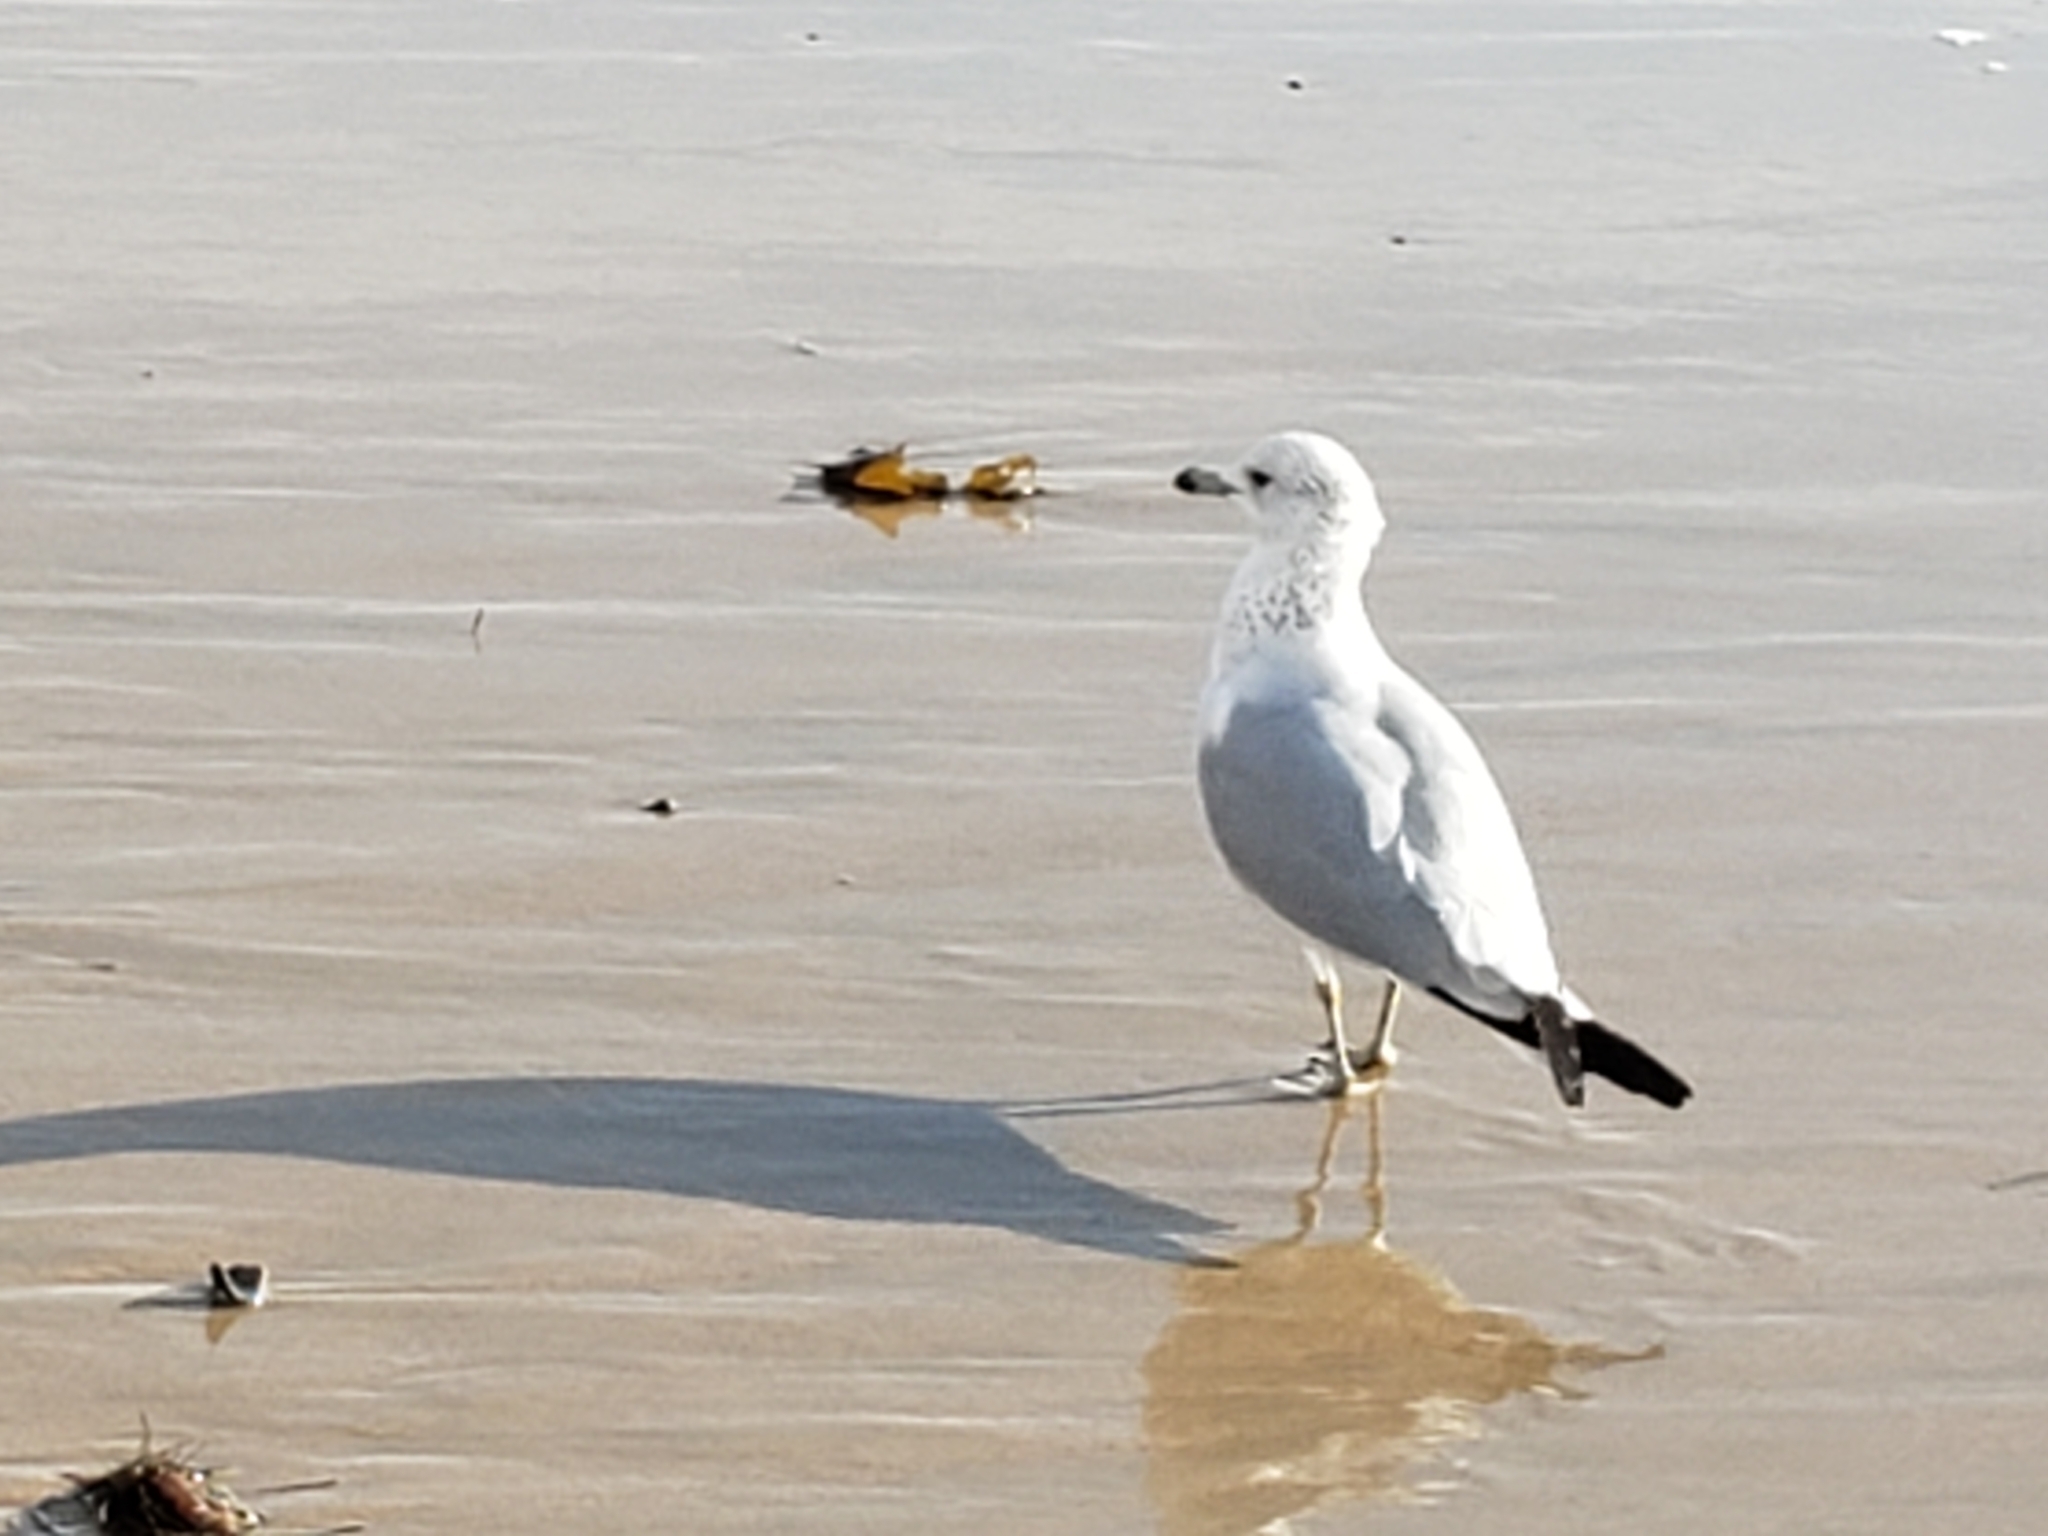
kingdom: Animalia
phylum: Chordata
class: Aves
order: Charadriiformes
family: Laridae
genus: Larus
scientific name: Larus delawarensis
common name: Ring-billed gull
